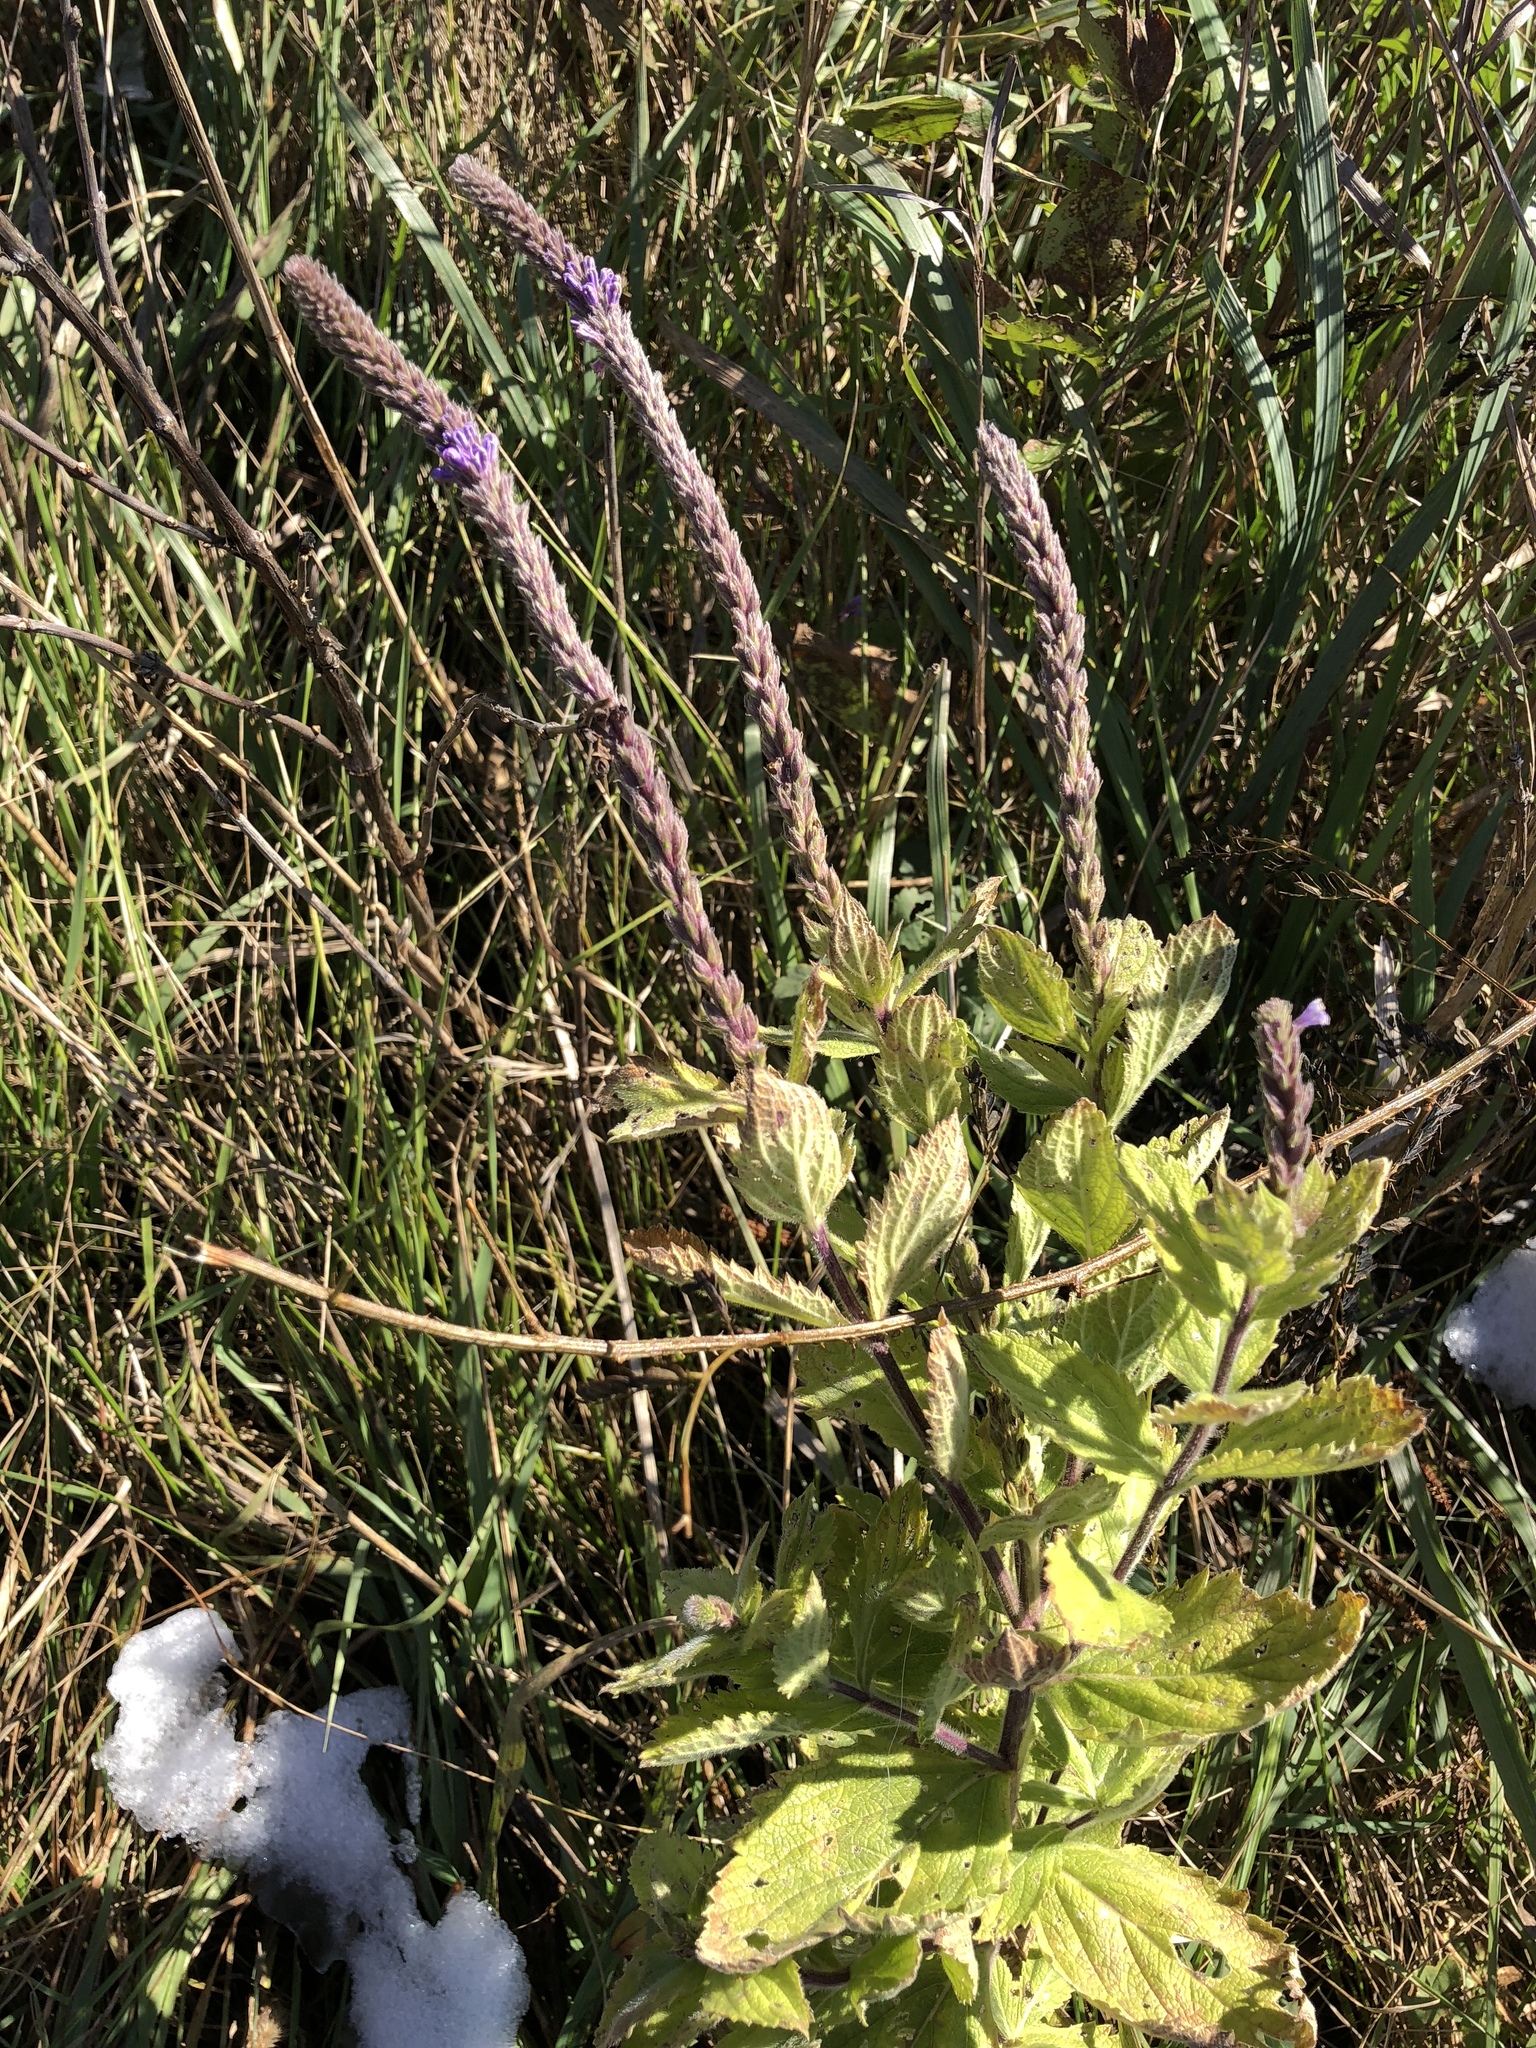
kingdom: Plantae
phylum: Tracheophyta
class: Magnoliopsida
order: Lamiales
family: Verbenaceae
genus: Verbena
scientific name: Verbena stricta
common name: Hoary vervain
